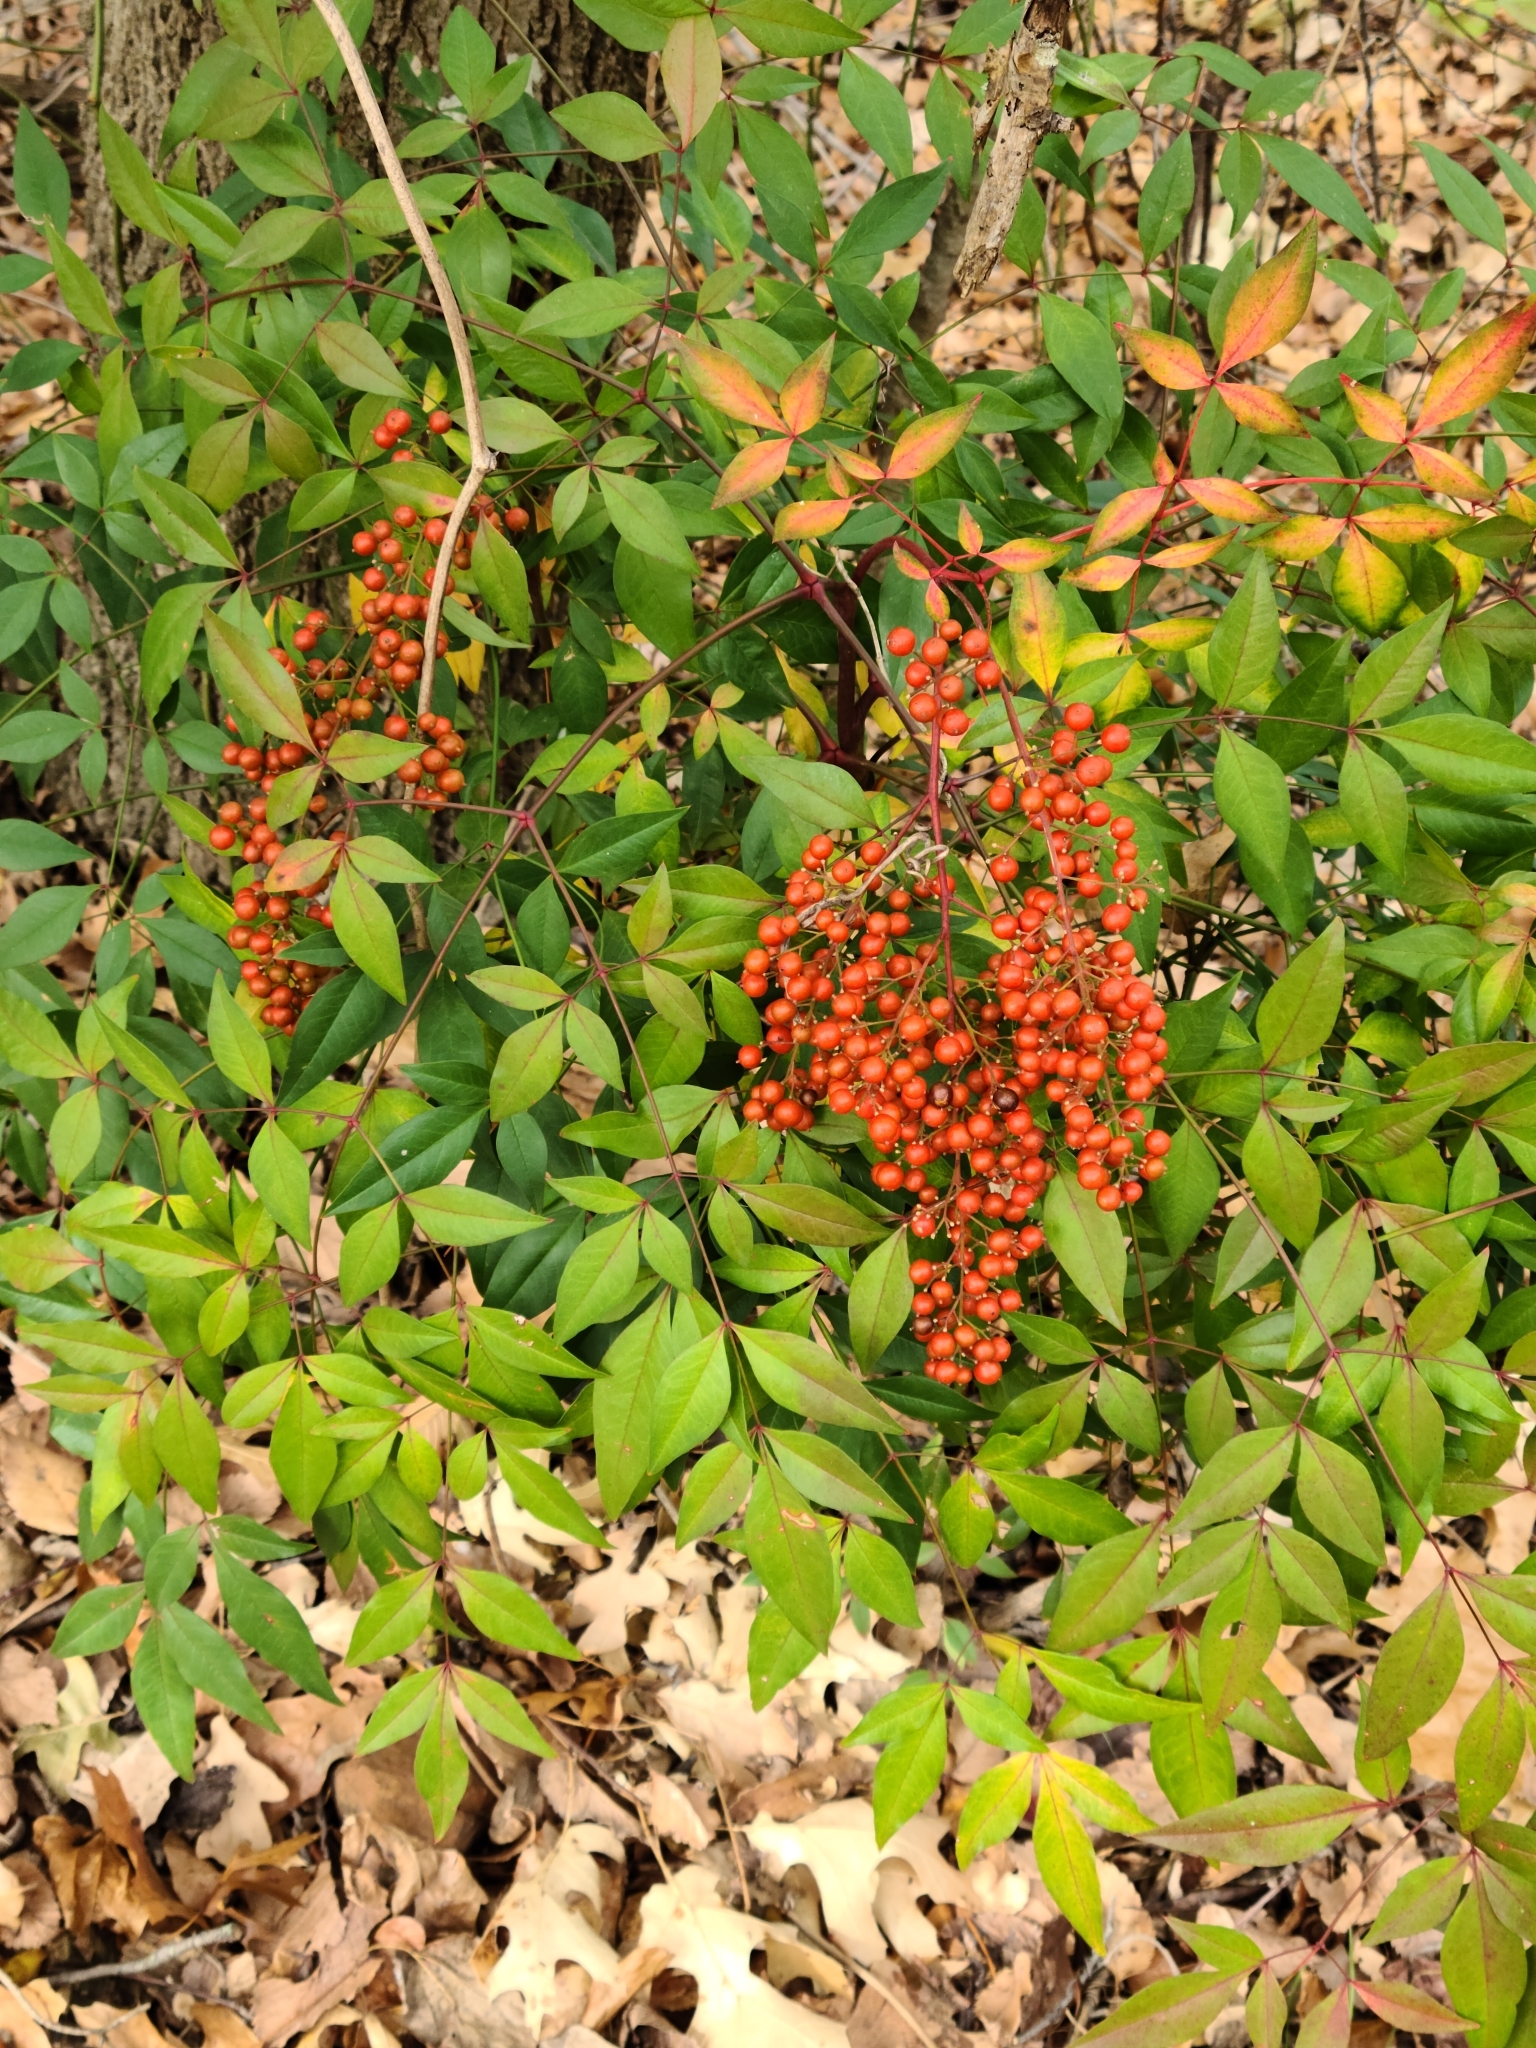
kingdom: Plantae
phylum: Tracheophyta
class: Magnoliopsida
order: Ranunculales
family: Berberidaceae
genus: Nandina
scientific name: Nandina domestica
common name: Sacred bamboo
